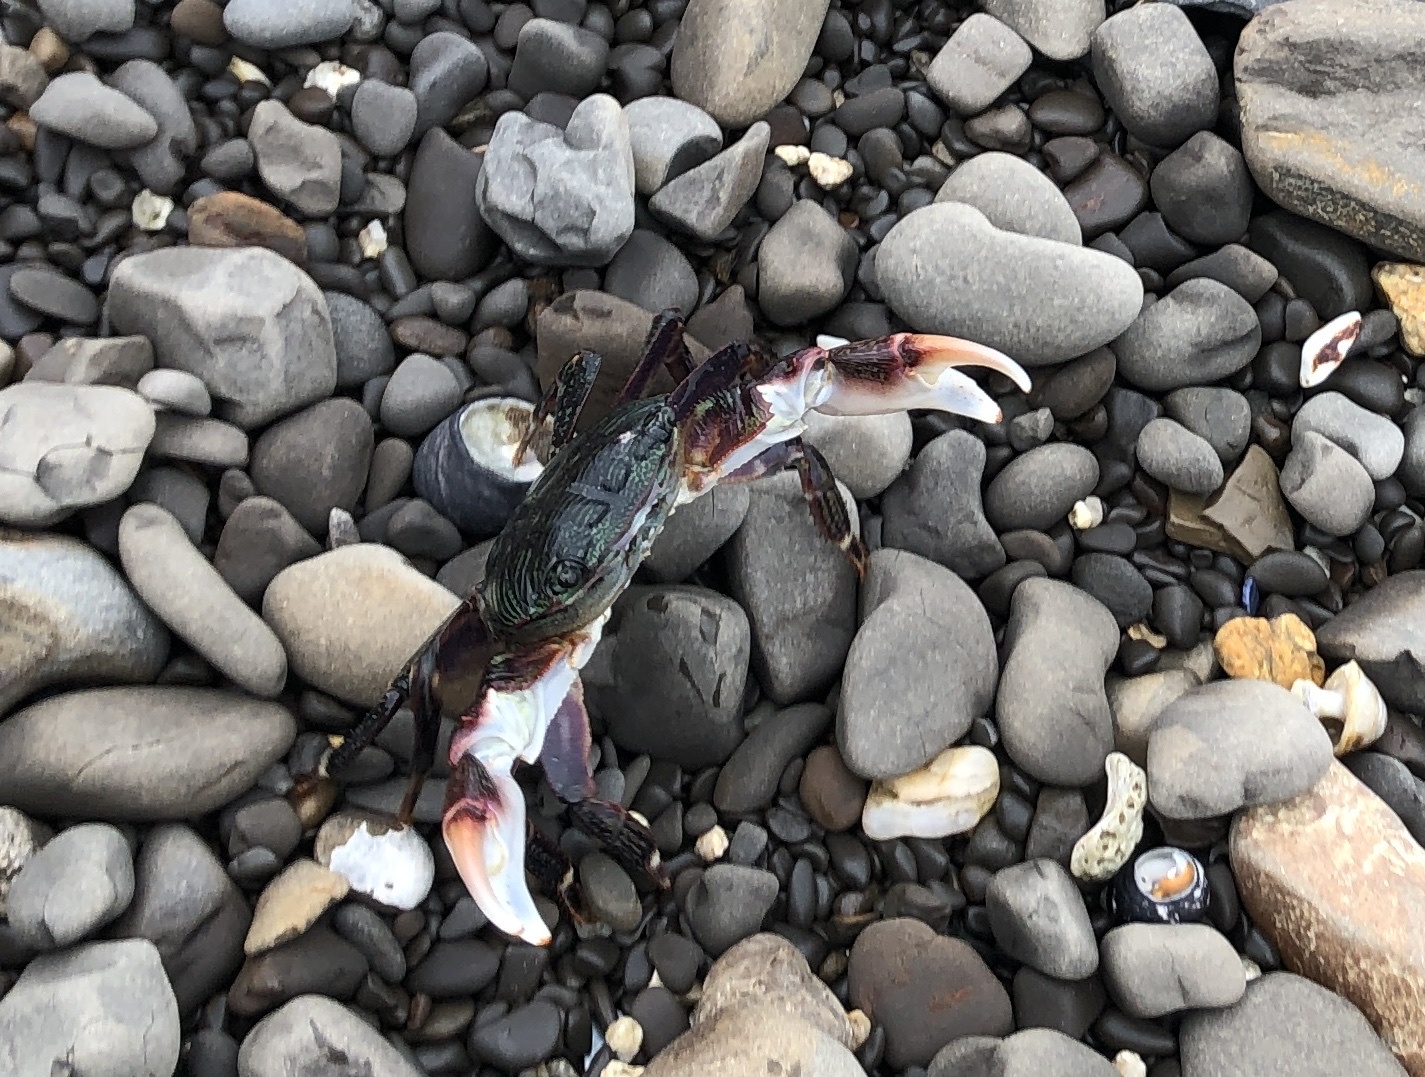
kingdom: Animalia
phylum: Arthropoda
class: Malacostraca
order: Decapoda
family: Grapsidae
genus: Pachygrapsus
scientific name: Pachygrapsus crassipes
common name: Striped shore crab
